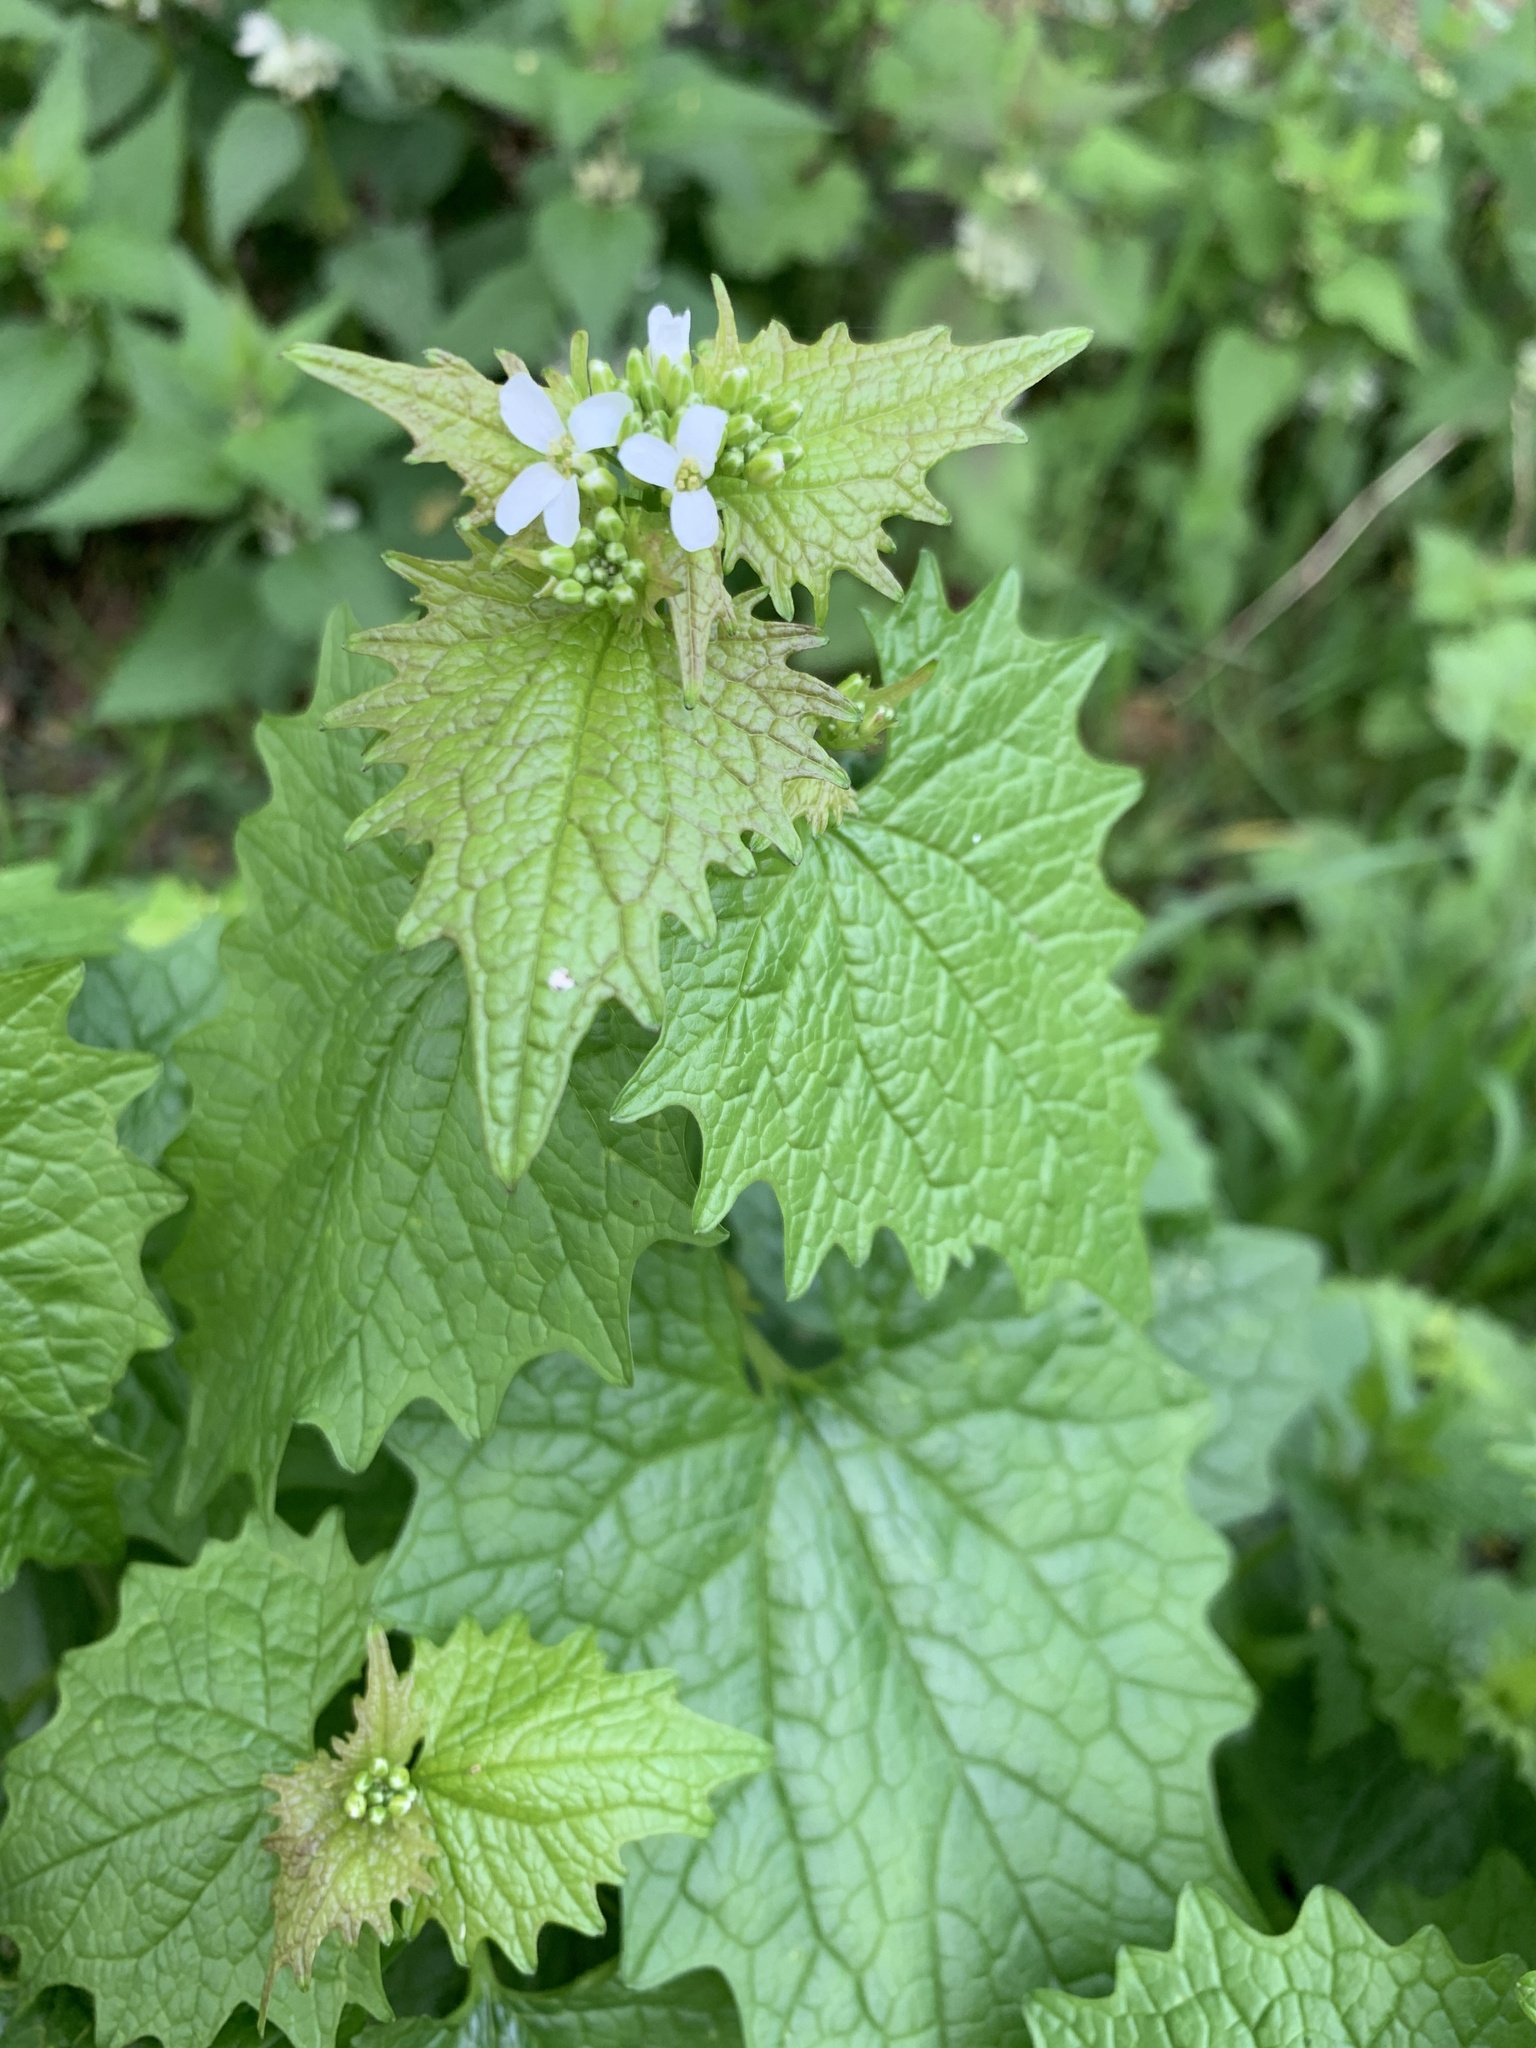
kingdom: Plantae
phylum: Tracheophyta
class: Magnoliopsida
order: Brassicales
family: Brassicaceae
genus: Alliaria
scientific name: Alliaria petiolata
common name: Garlic mustard
